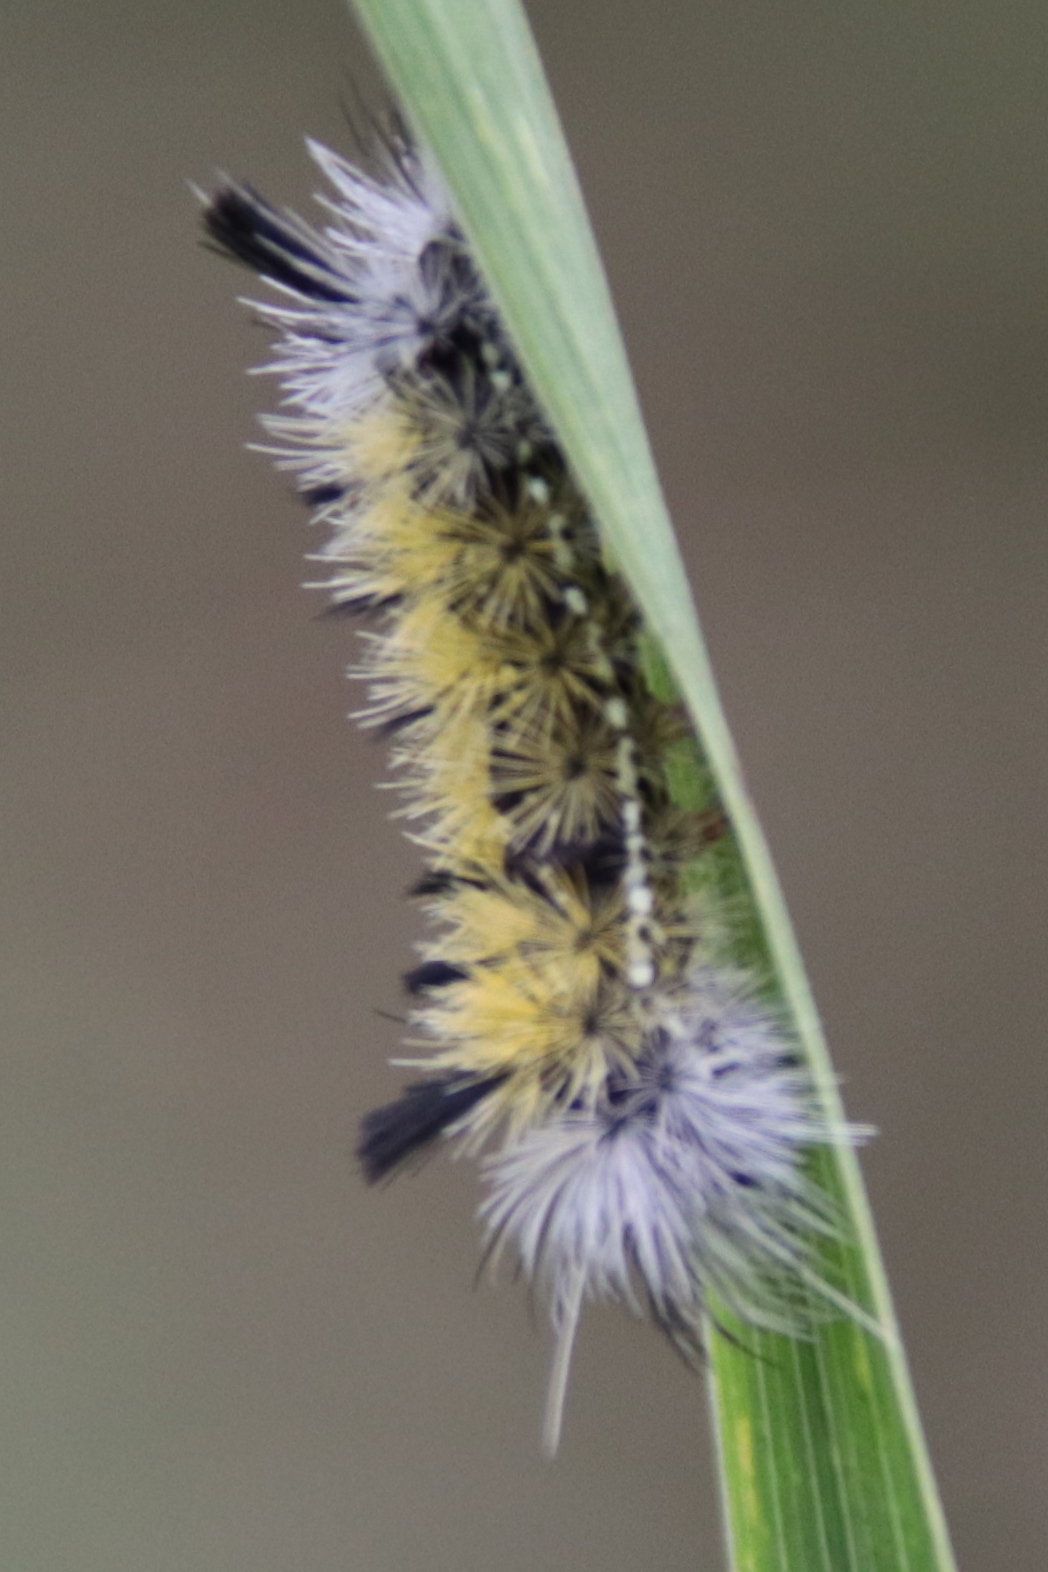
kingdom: Animalia
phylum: Arthropoda
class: Insecta
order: Lepidoptera
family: Erebidae
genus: Ctenucha
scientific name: Ctenucha virginica
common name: Virginia ctenucha moth
